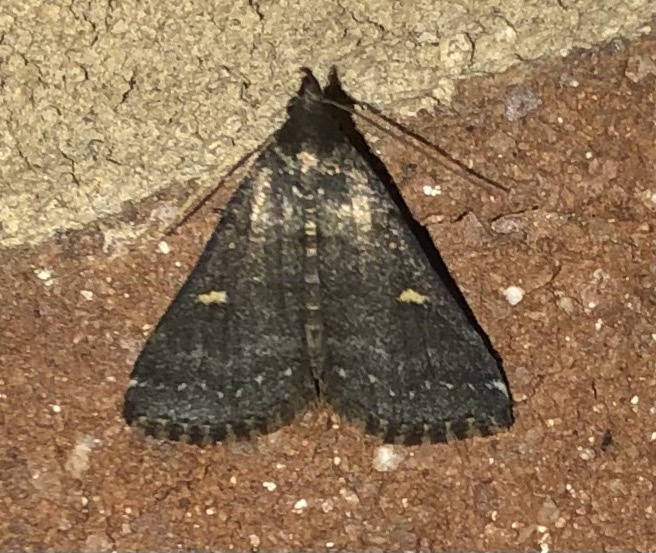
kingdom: Animalia
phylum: Arthropoda
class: Insecta
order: Lepidoptera
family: Erebidae
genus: Tetanolita
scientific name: Tetanolita mynesalis
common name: Smoky tetanolita moth
